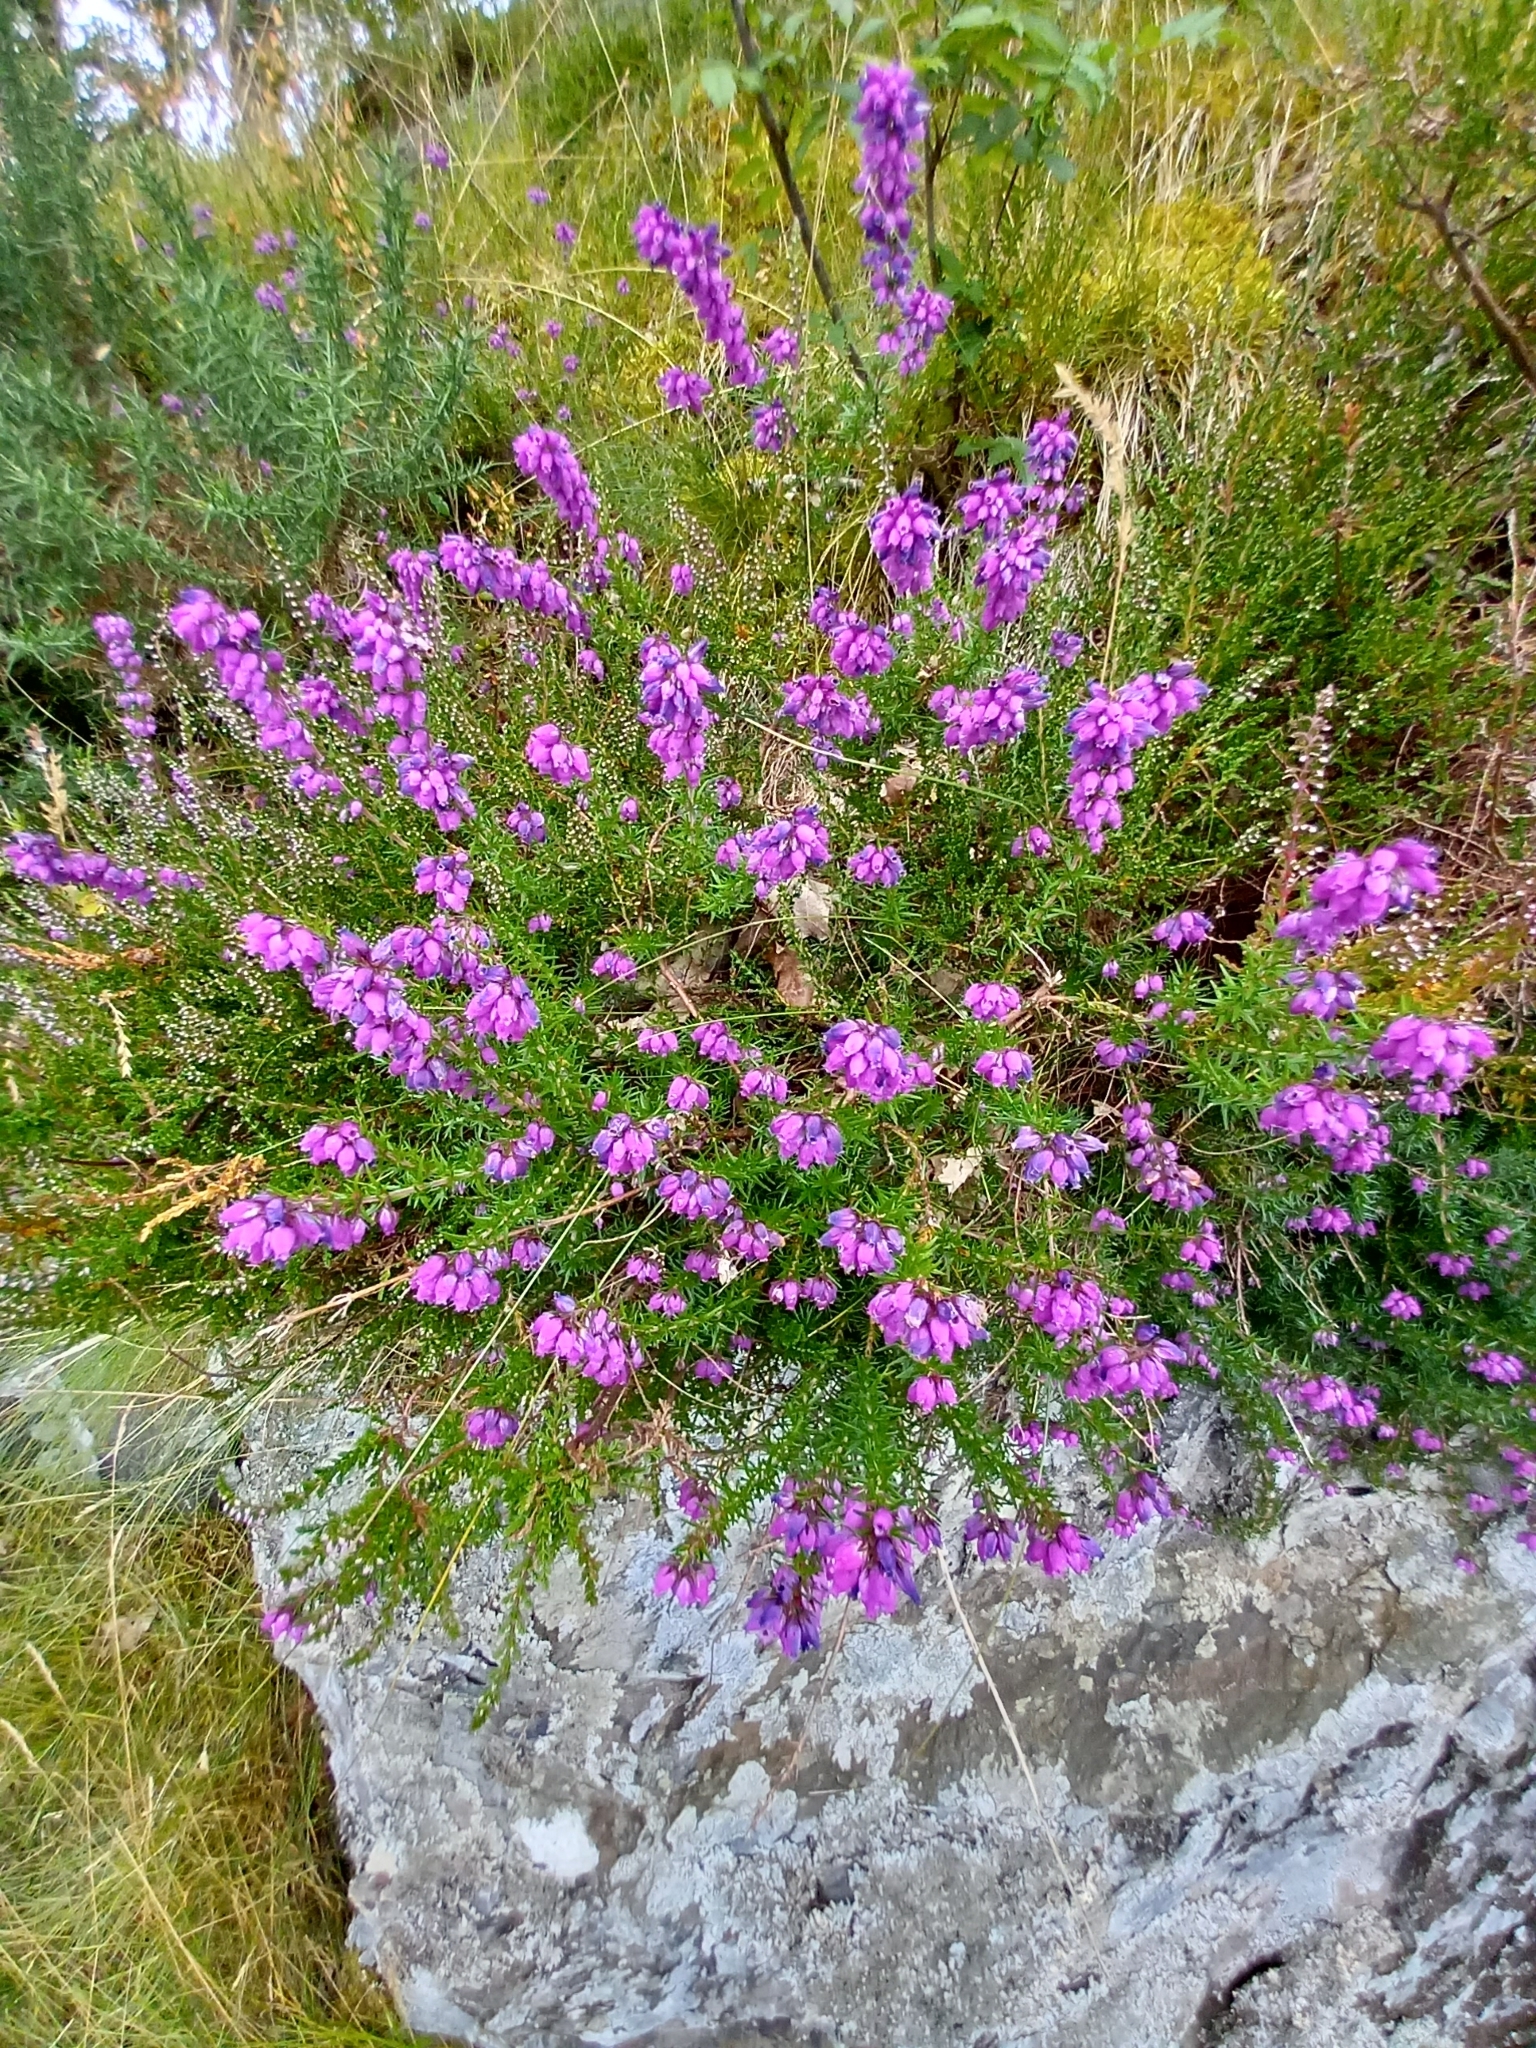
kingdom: Plantae
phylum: Tracheophyta
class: Magnoliopsida
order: Ericales
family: Ericaceae
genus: Erica
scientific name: Erica cinerea
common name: Bell heather
